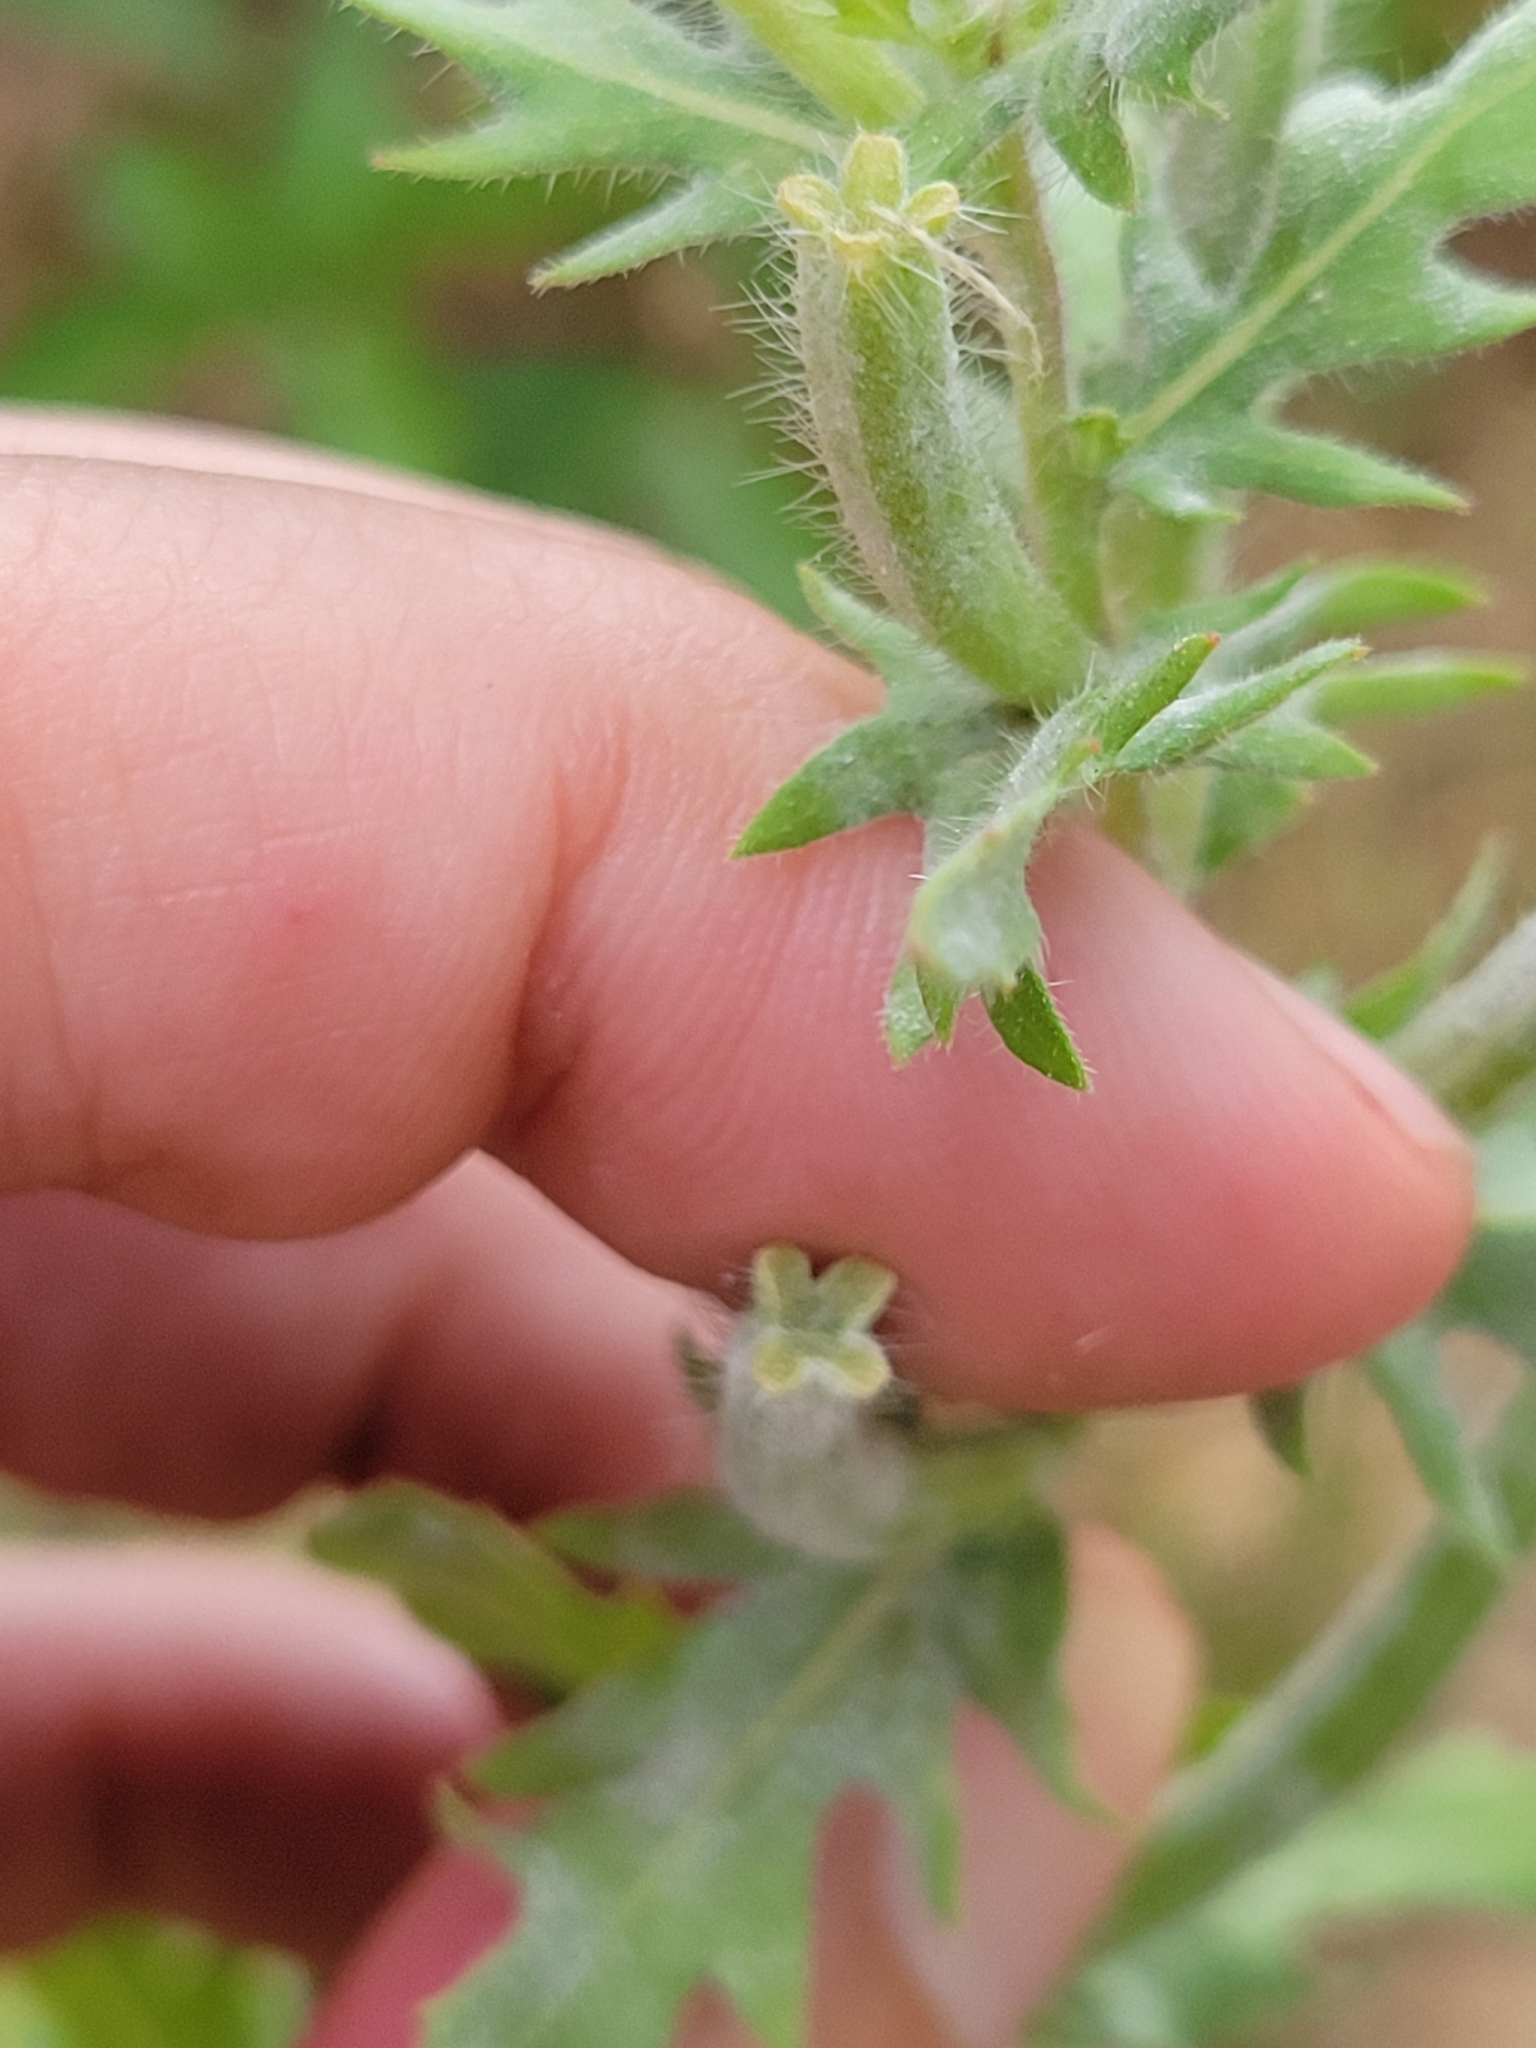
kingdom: Plantae
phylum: Tracheophyta
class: Magnoliopsida
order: Myrtales
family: Onagraceae
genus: Oenothera
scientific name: Oenothera laciniata
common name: Cut-leaved evening-primrose
